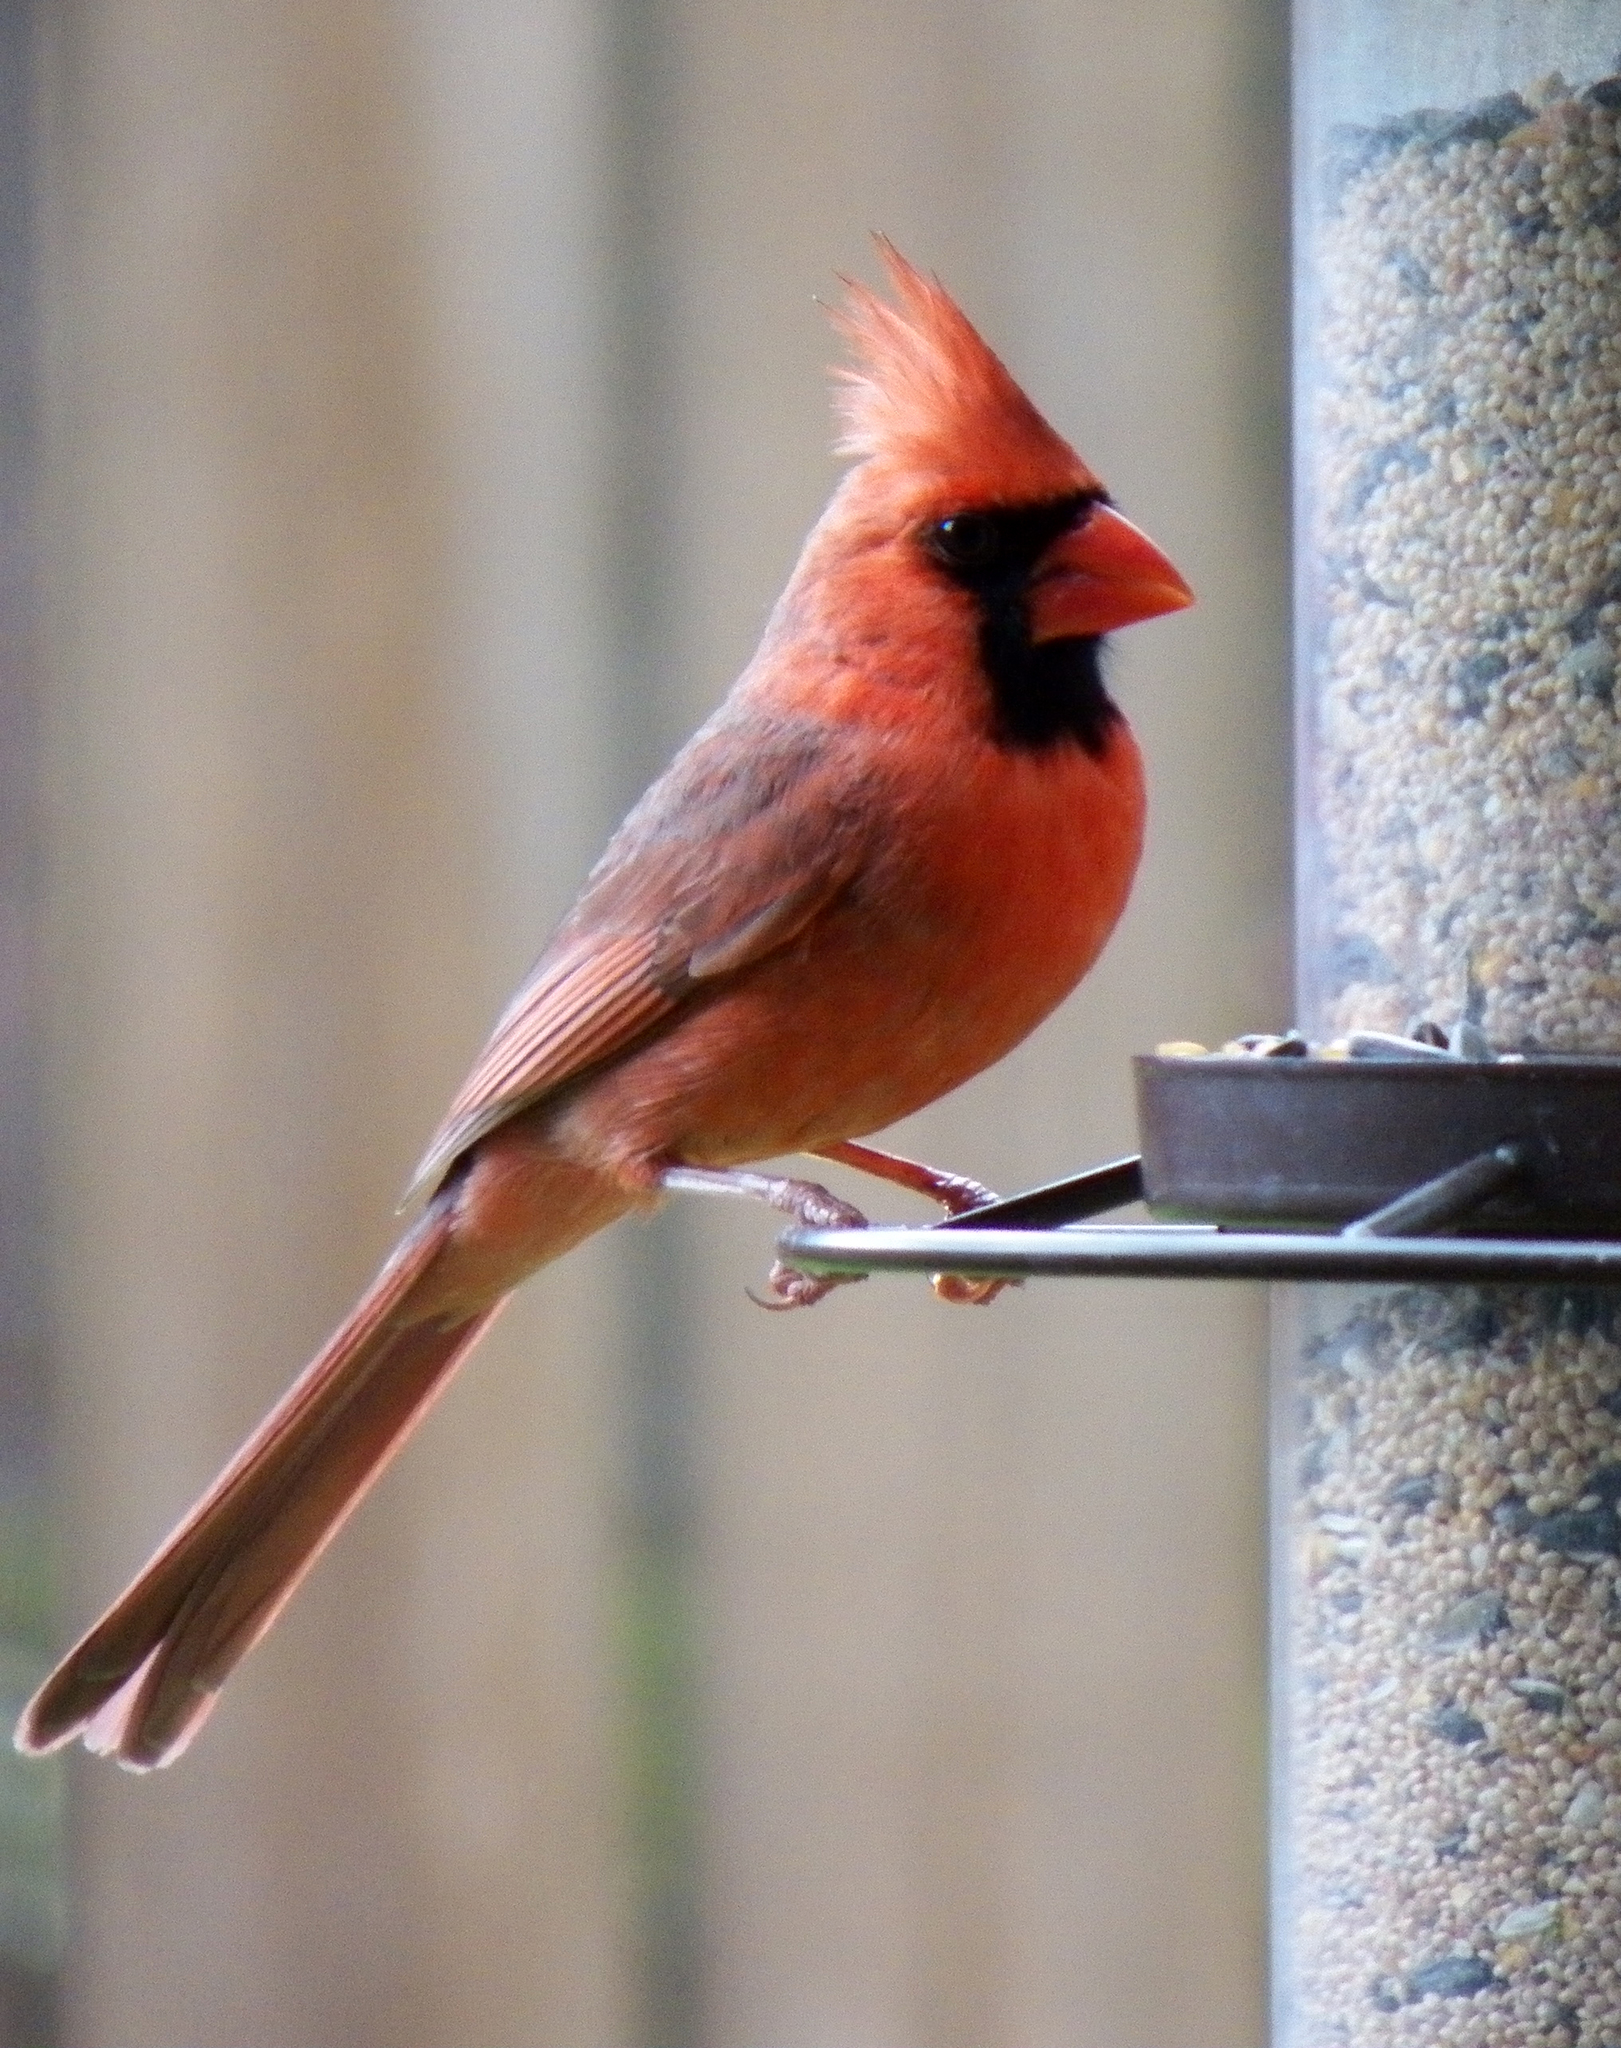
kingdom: Animalia
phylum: Chordata
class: Aves
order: Passeriformes
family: Cardinalidae
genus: Cardinalis
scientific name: Cardinalis cardinalis
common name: Northern cardinal
